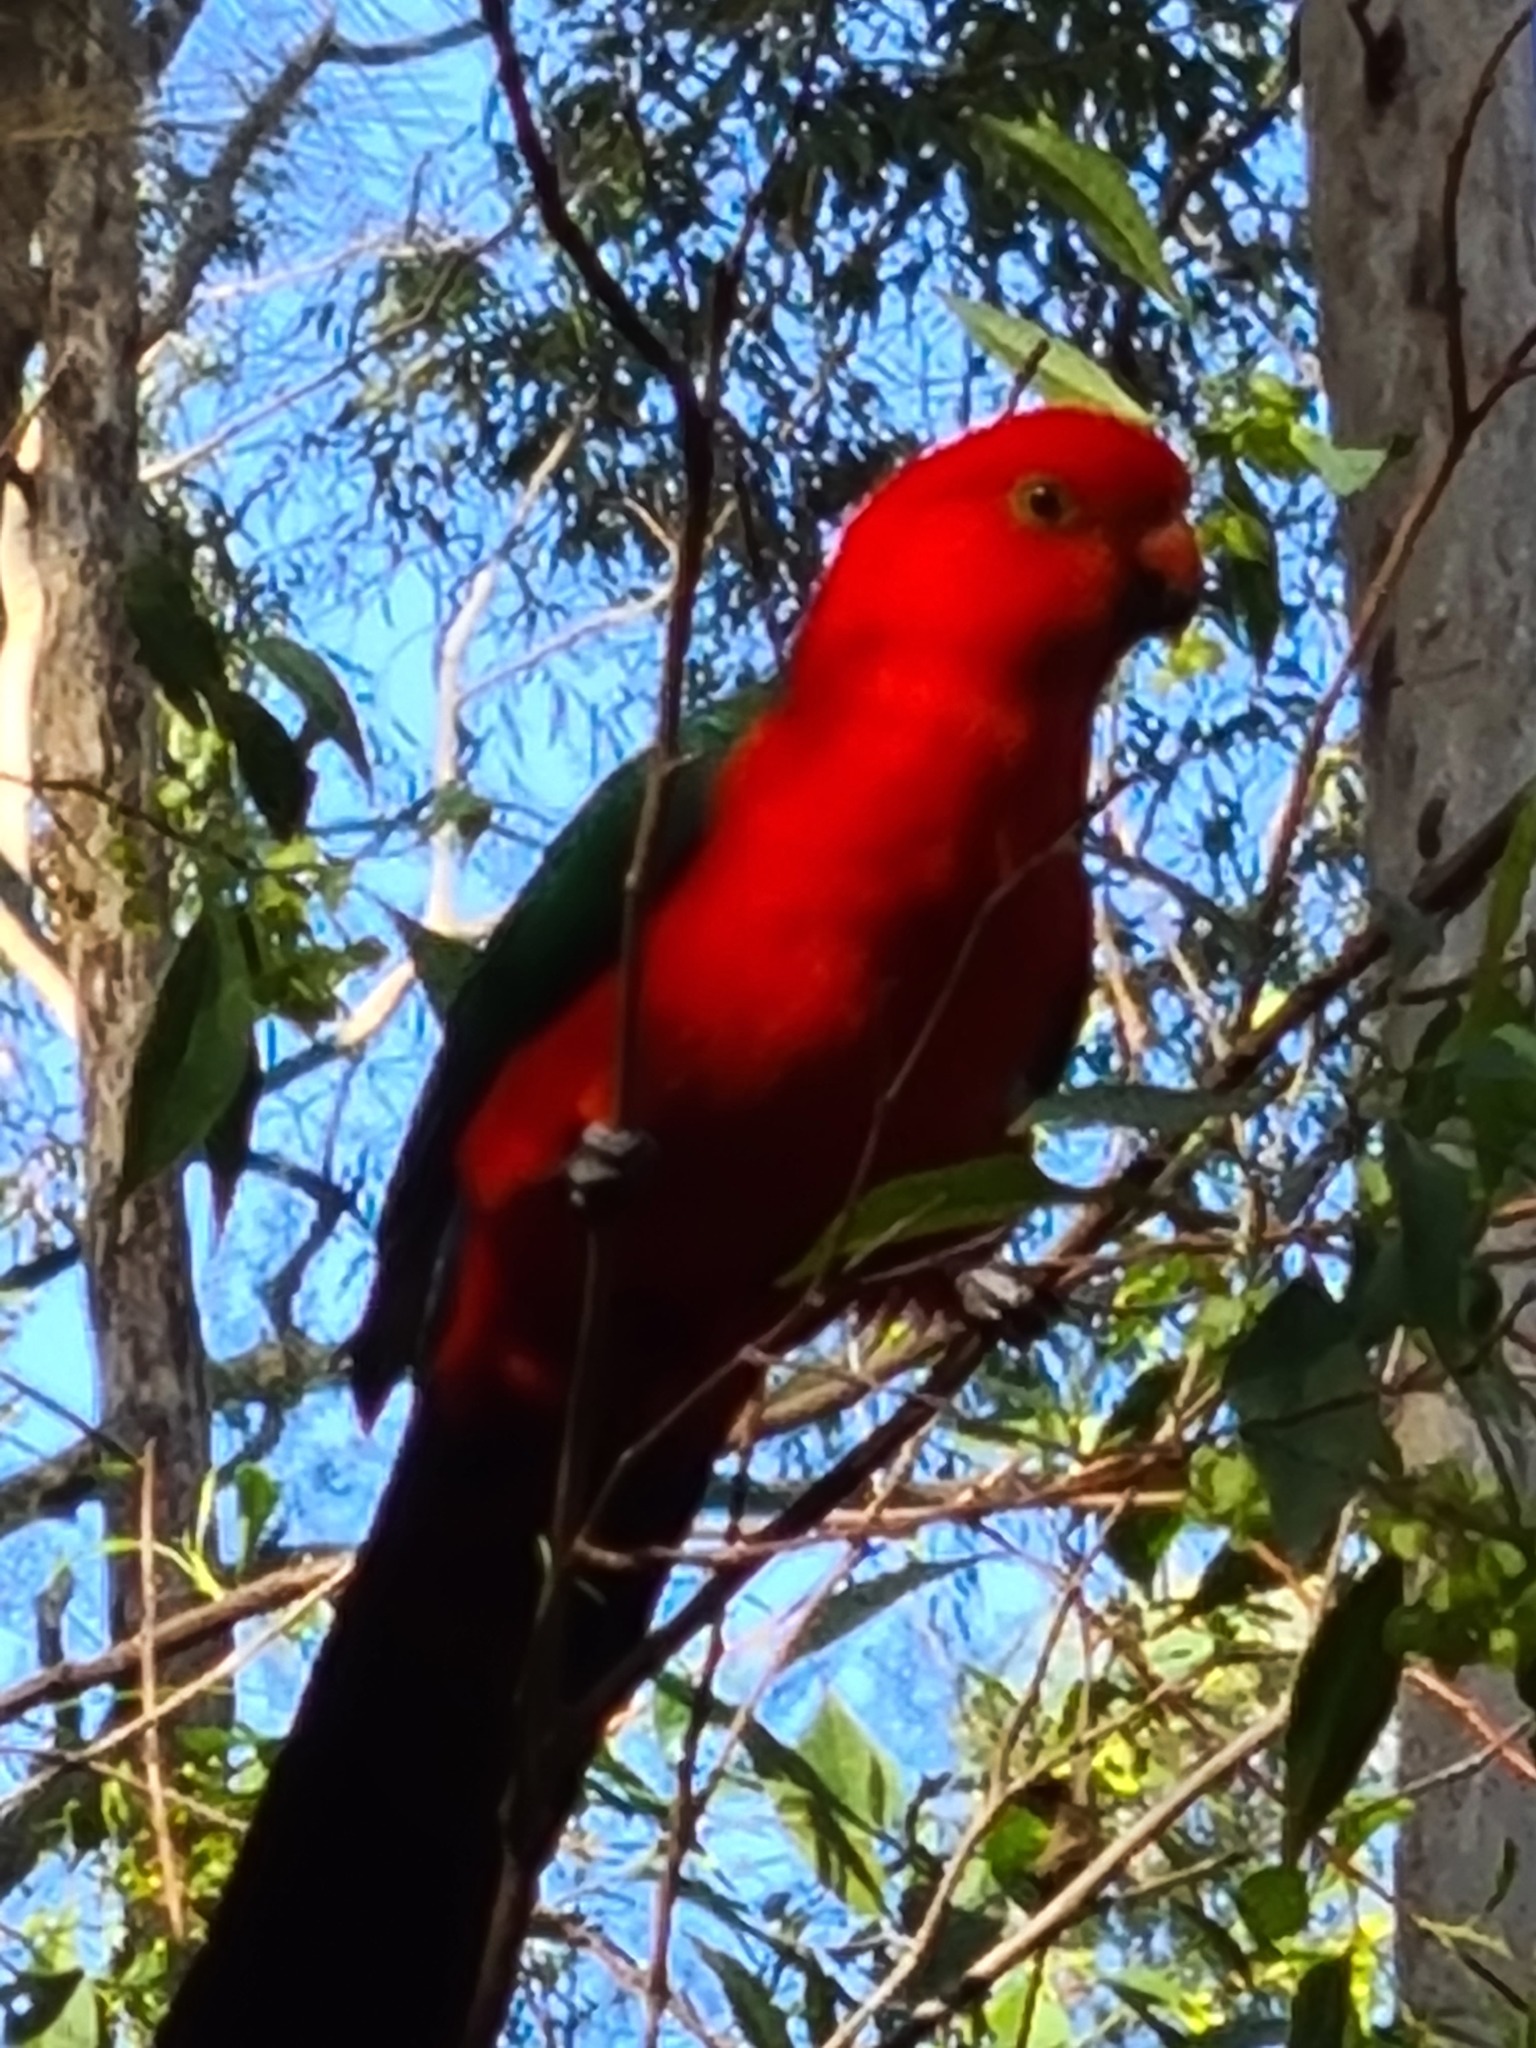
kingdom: Animalia
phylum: Chordata
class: Aves
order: Psittaciformes
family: Psittacidae
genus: Alisterus
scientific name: Alisterus scapularis
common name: Australian king parrot
